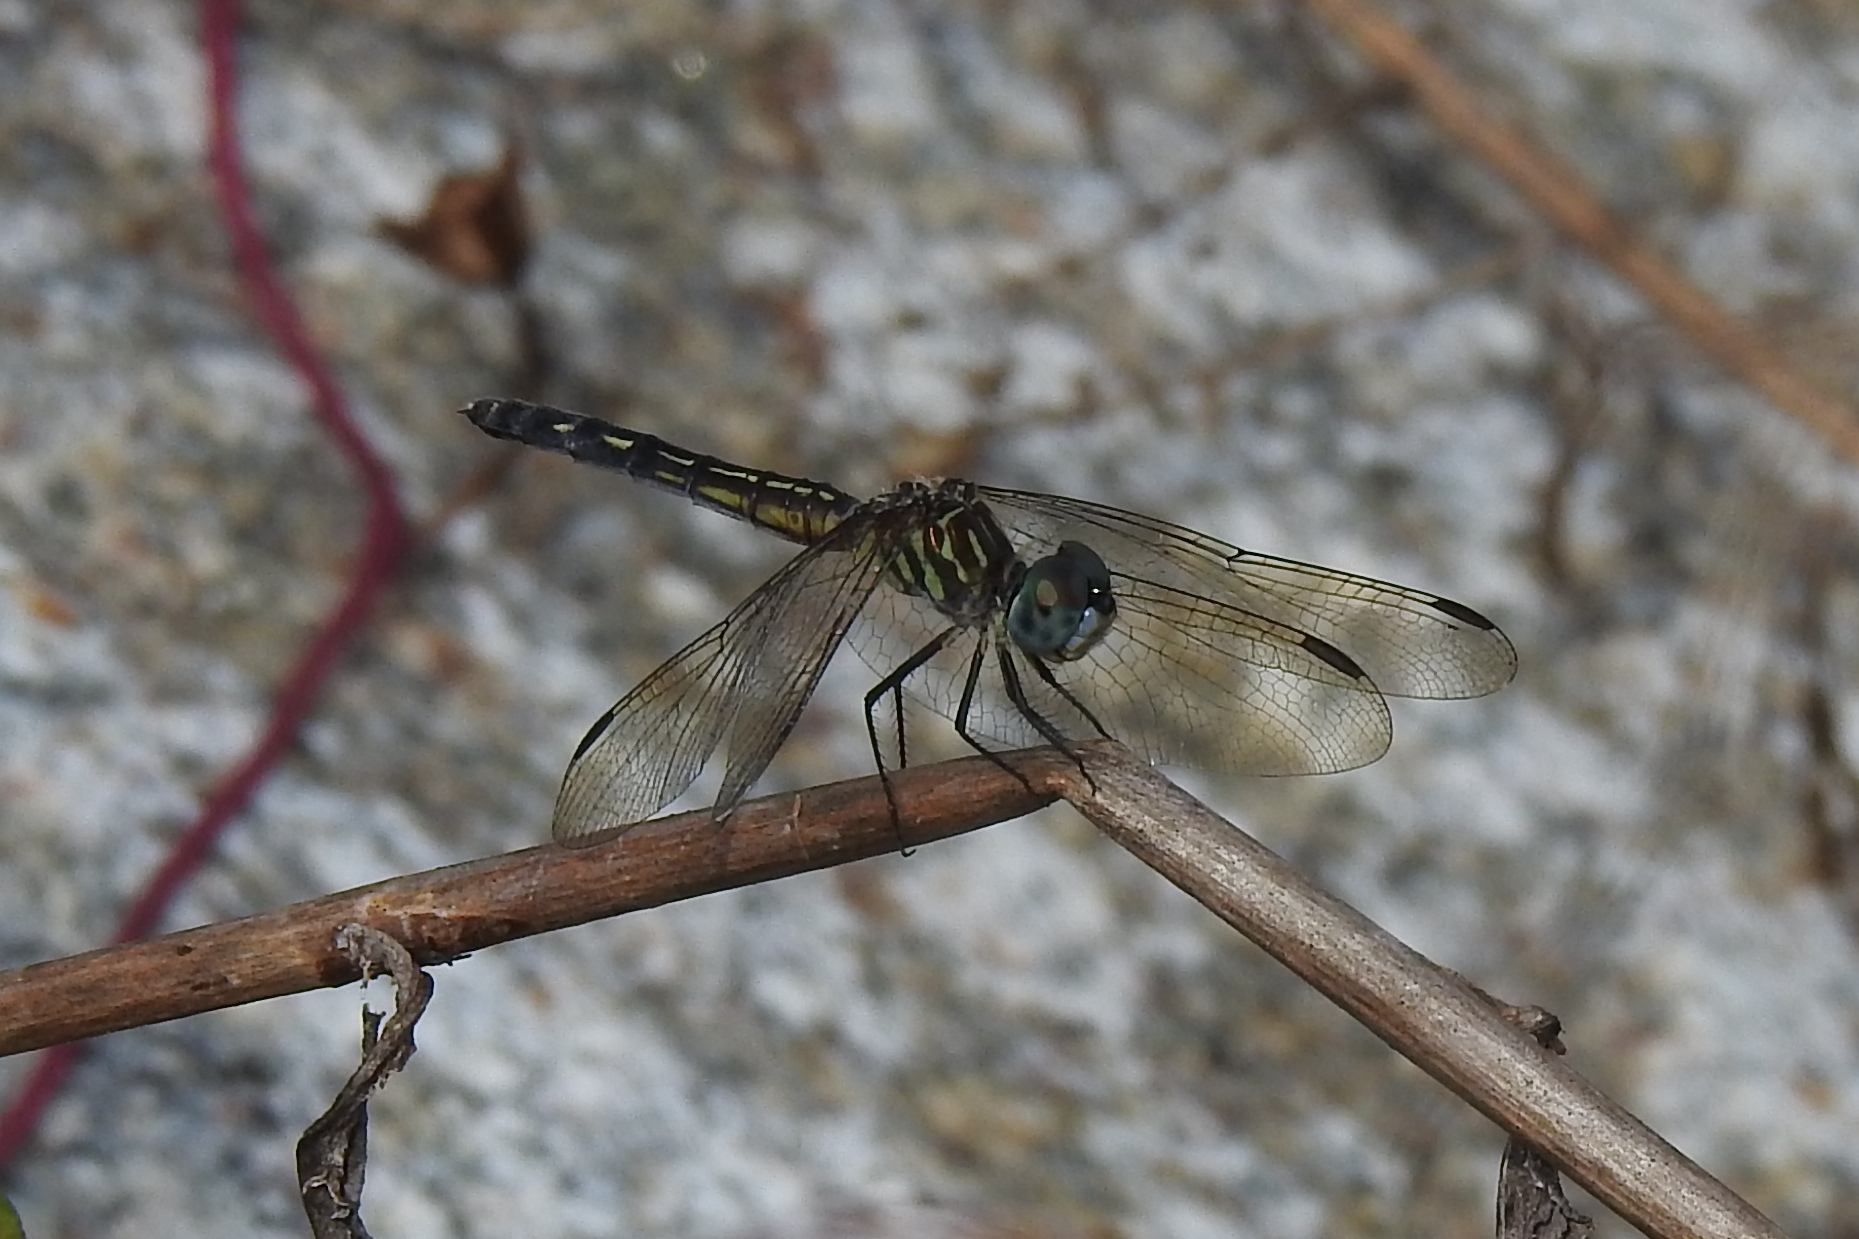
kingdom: Animalia
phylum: Arthropoda
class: Insecta
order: Odonata
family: Libellulidae
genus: Pachydiplax
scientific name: Pachydiplax longipennis
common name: Blue dasher
